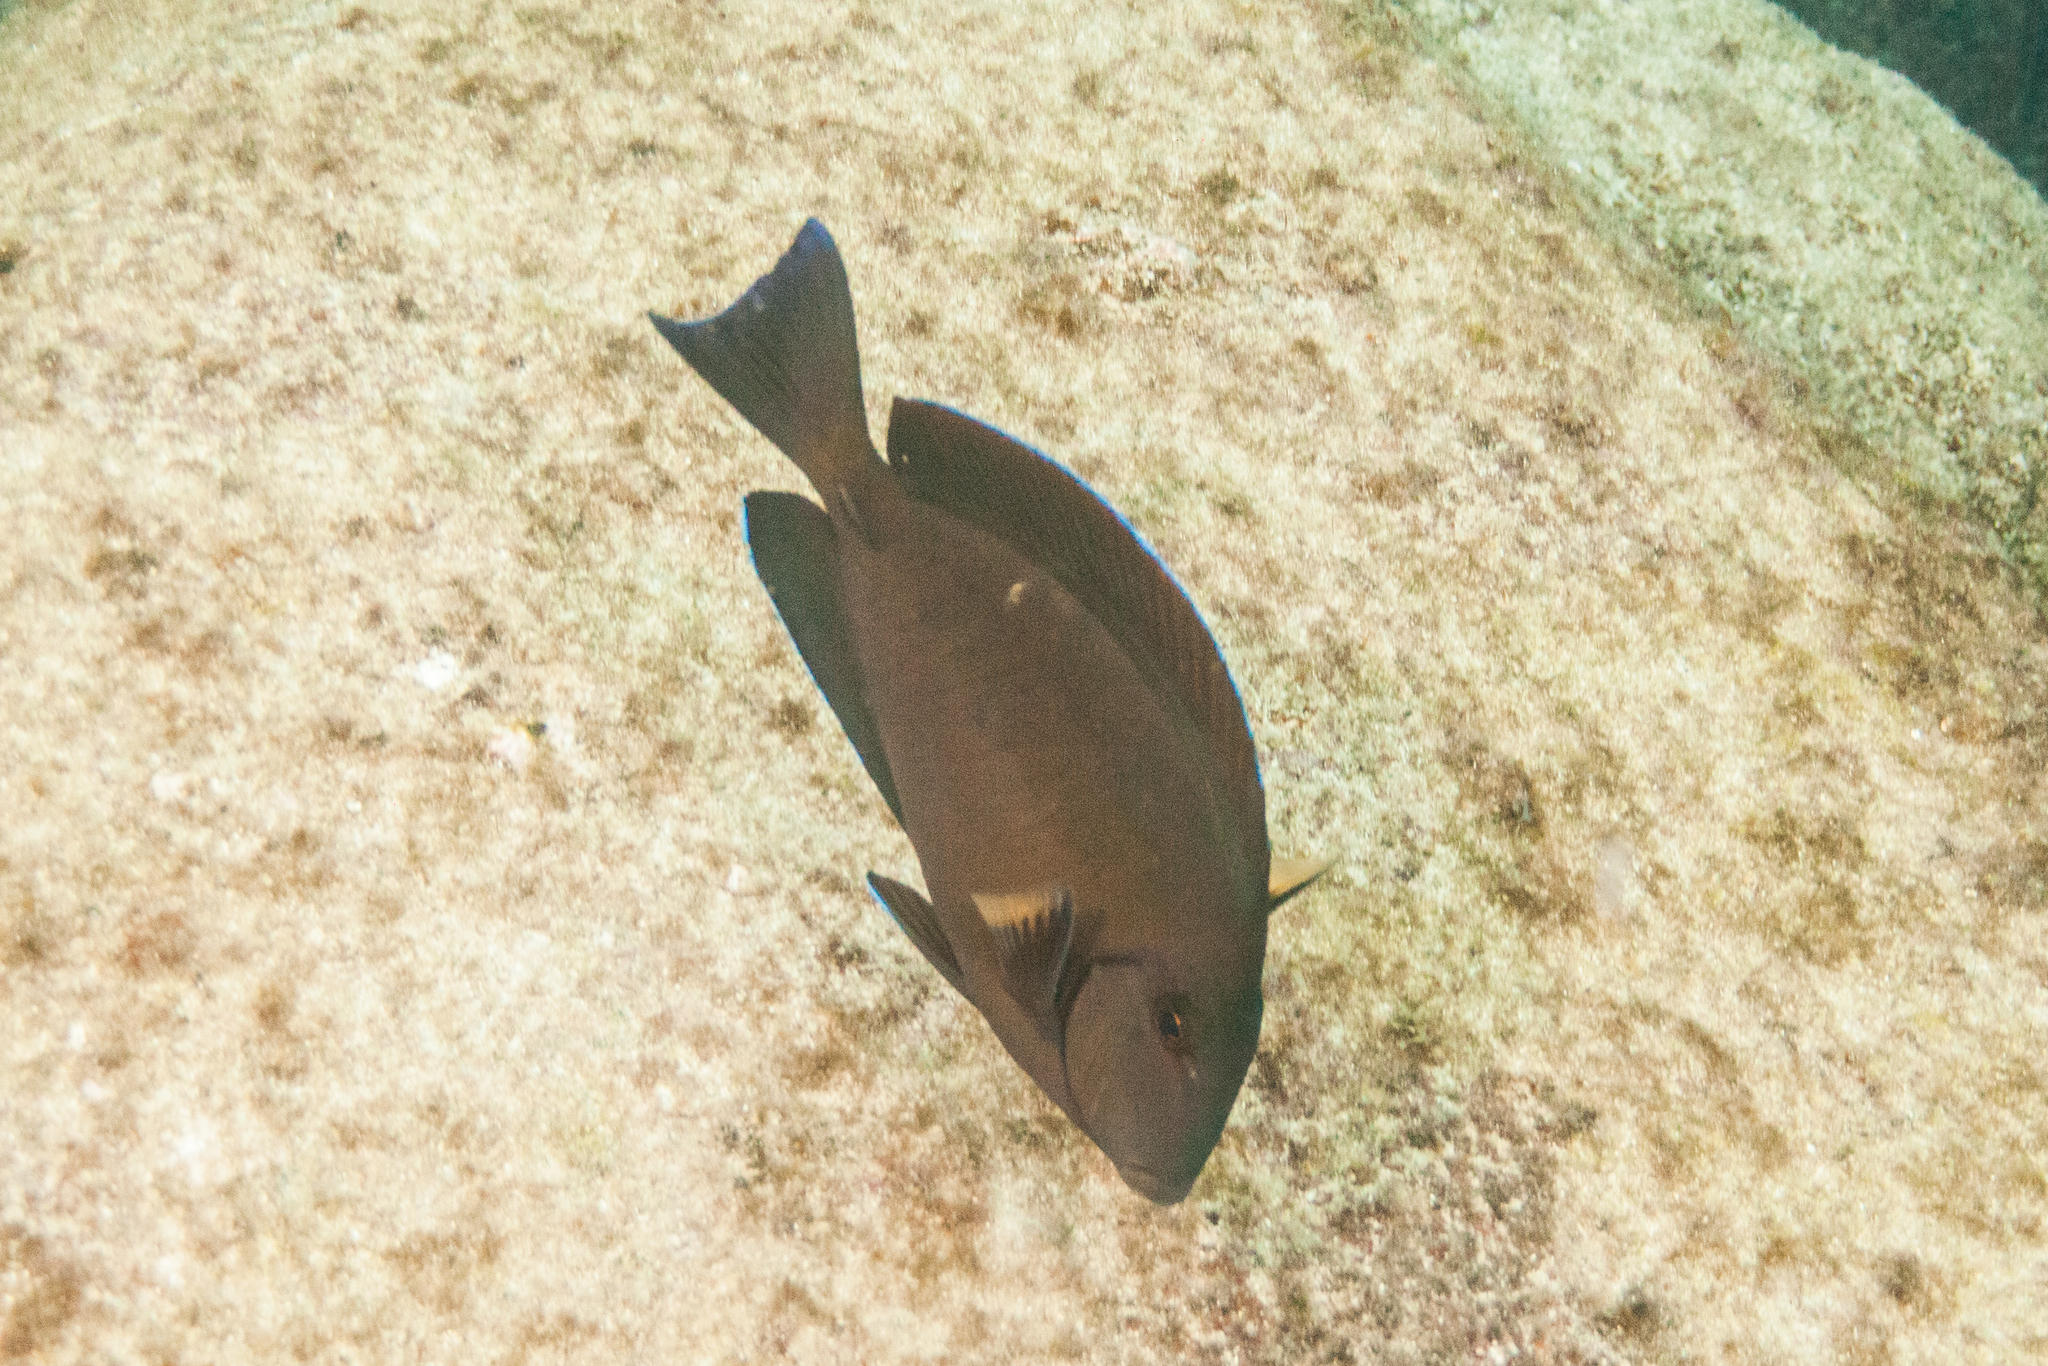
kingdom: Animalia
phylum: Chordata
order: Perciformes
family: Acanthuridae
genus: Acanthurus
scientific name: Acanthurus chirurgus
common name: Doctorfish
